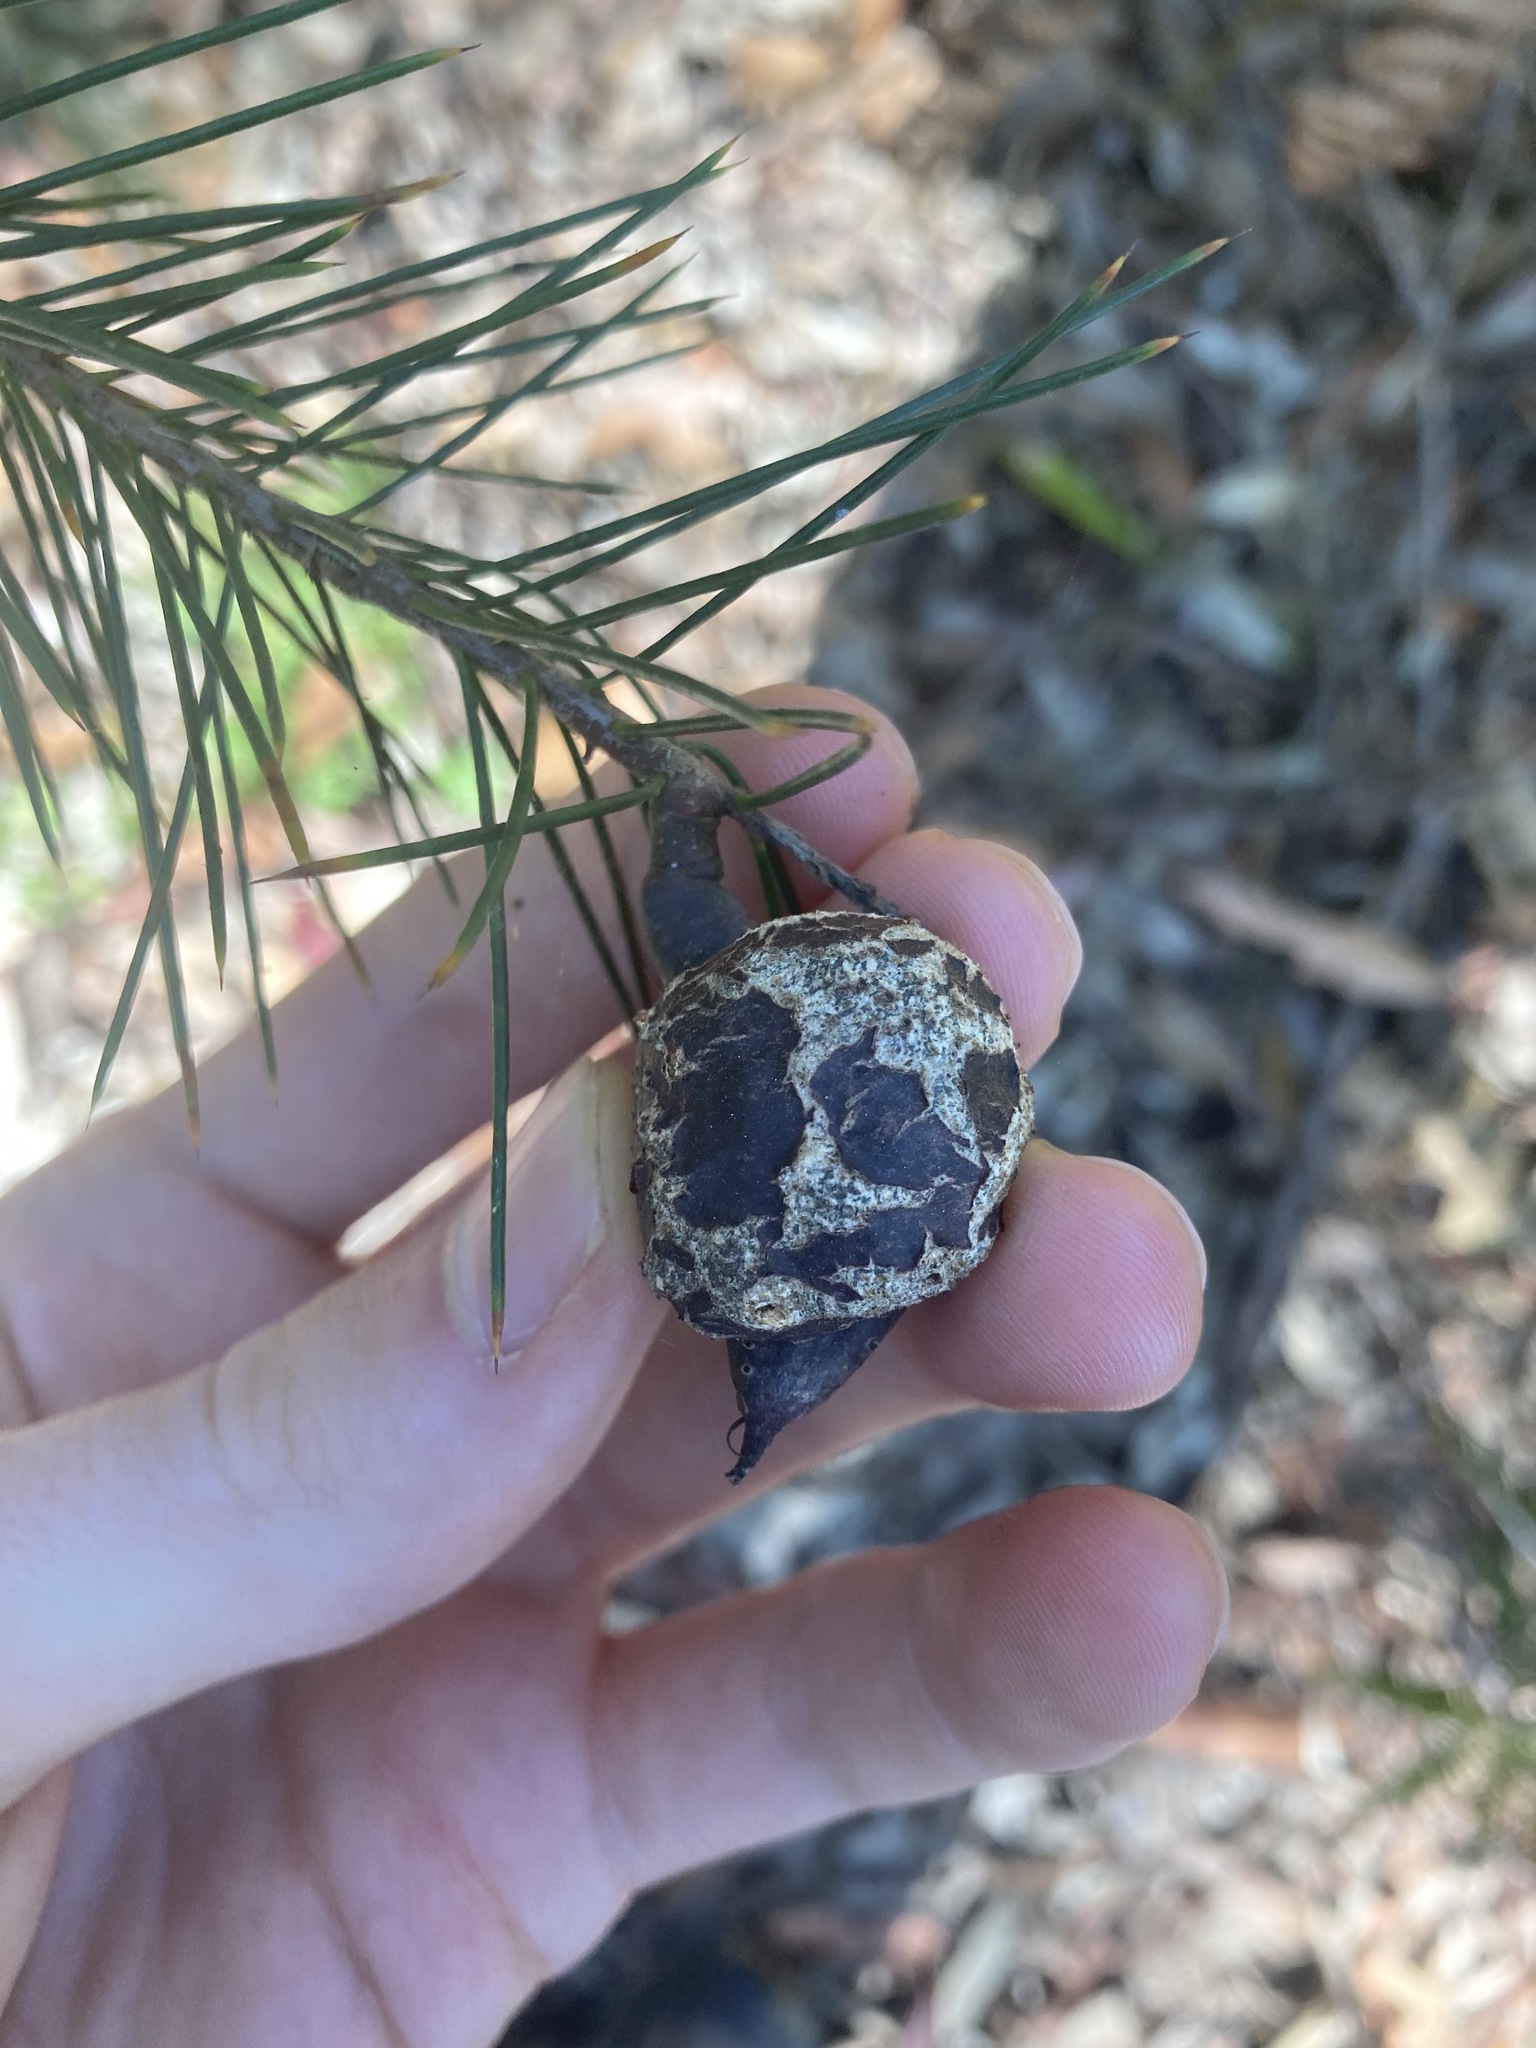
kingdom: Plantae
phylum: Tracheophyta
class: Magnoliopsida
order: Proteales
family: Proteaceae
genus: Hakea
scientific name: Hakea sericea
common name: Needle bush
